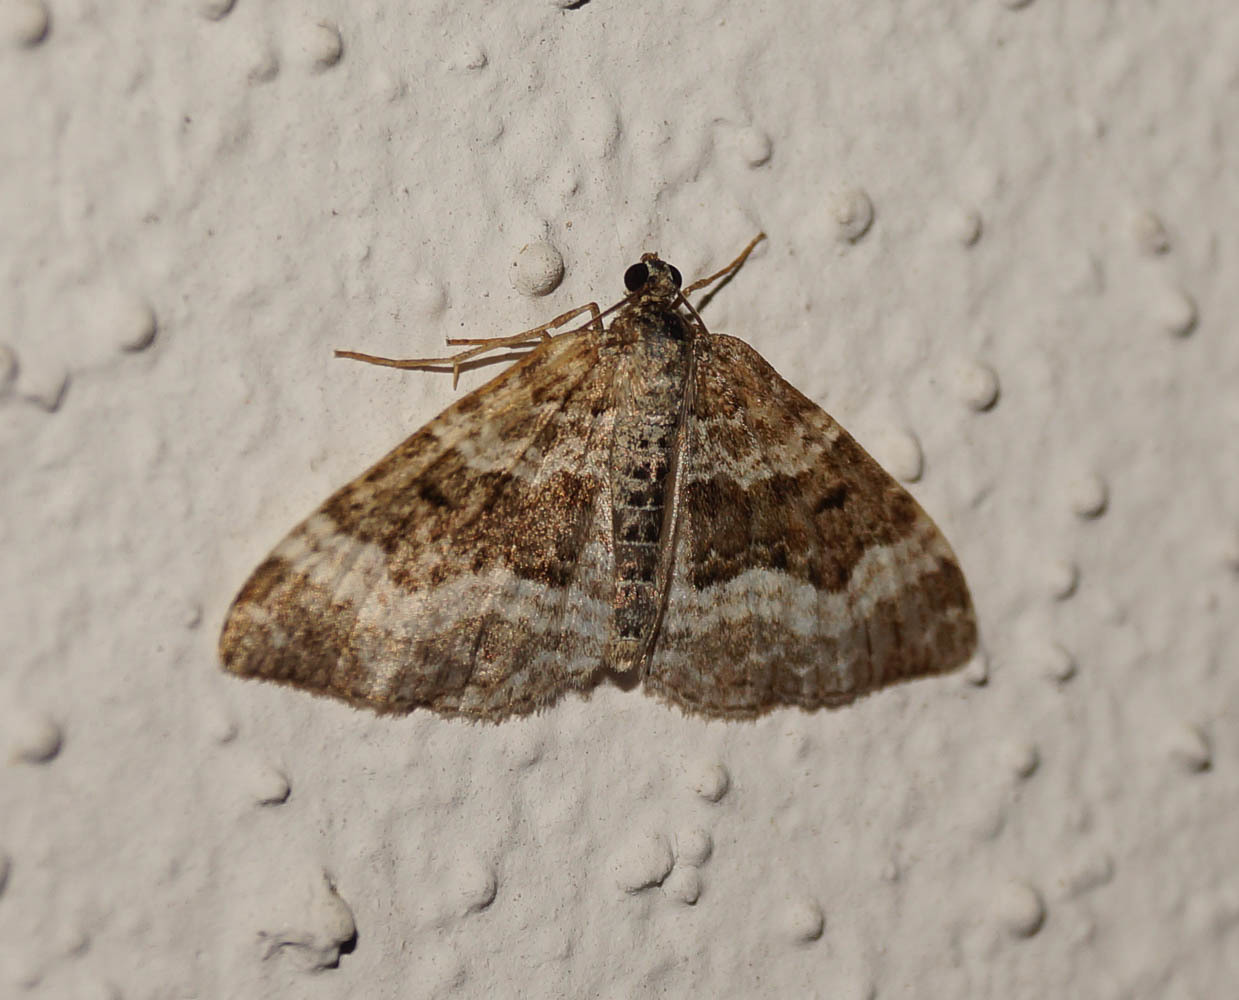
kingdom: Animalia
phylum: Arthropoda
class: Insecta
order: Lepidoptera
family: Geometridae
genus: Epirrhoe
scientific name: Epirrhoe alternata
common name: Common carpet
